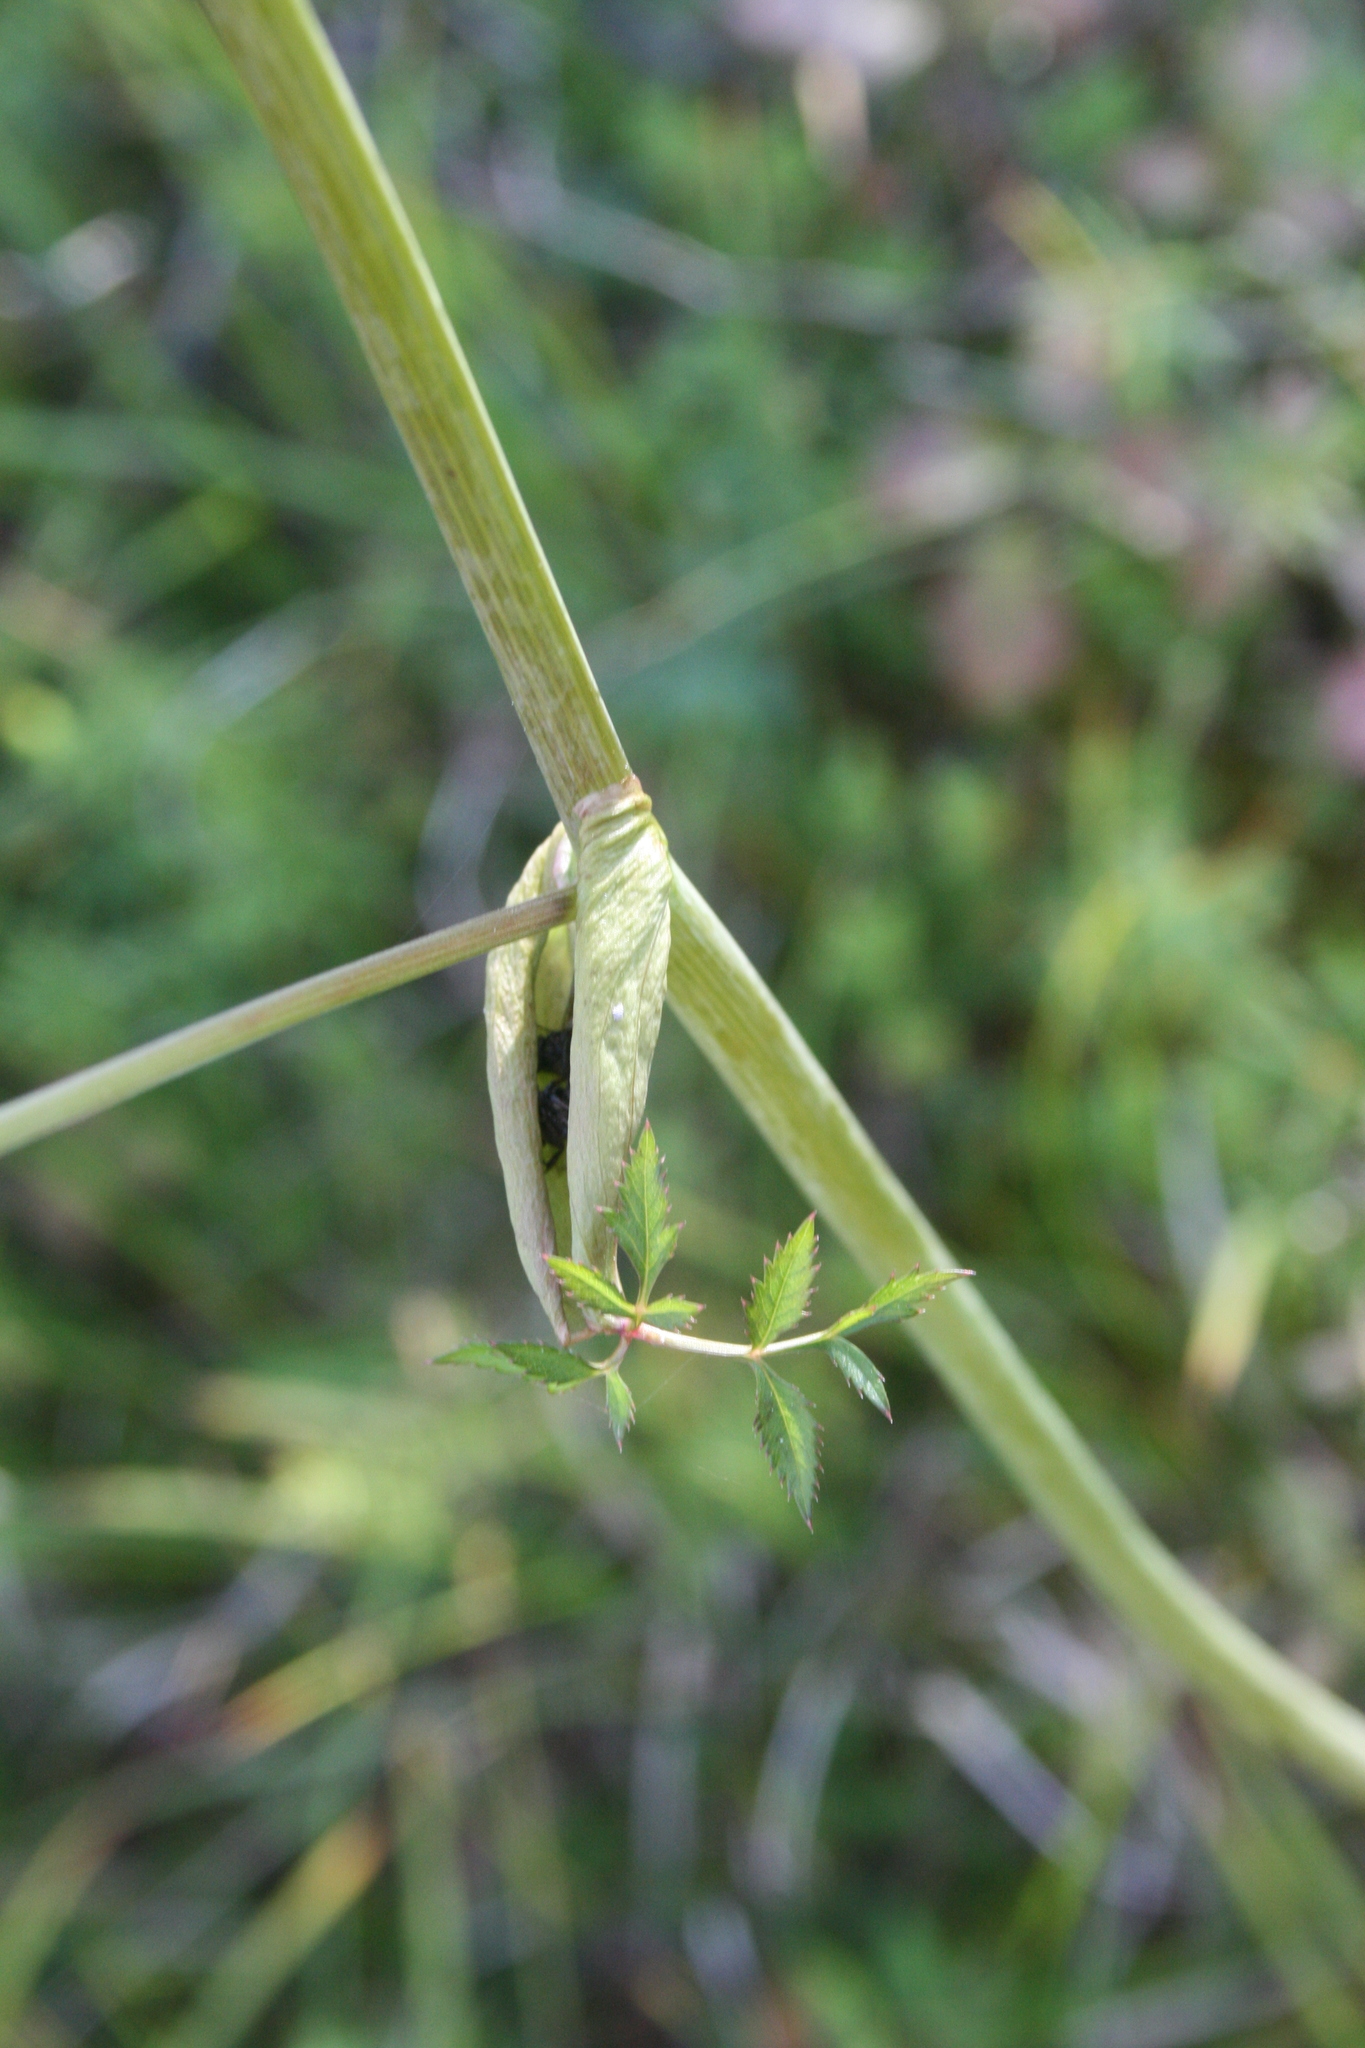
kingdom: Plantae
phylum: Tracheophyta
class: Magnoliopsida
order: Apiales
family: Apiaceae
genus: Angelica
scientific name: Angelica sylvestris
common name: Wild angelica
